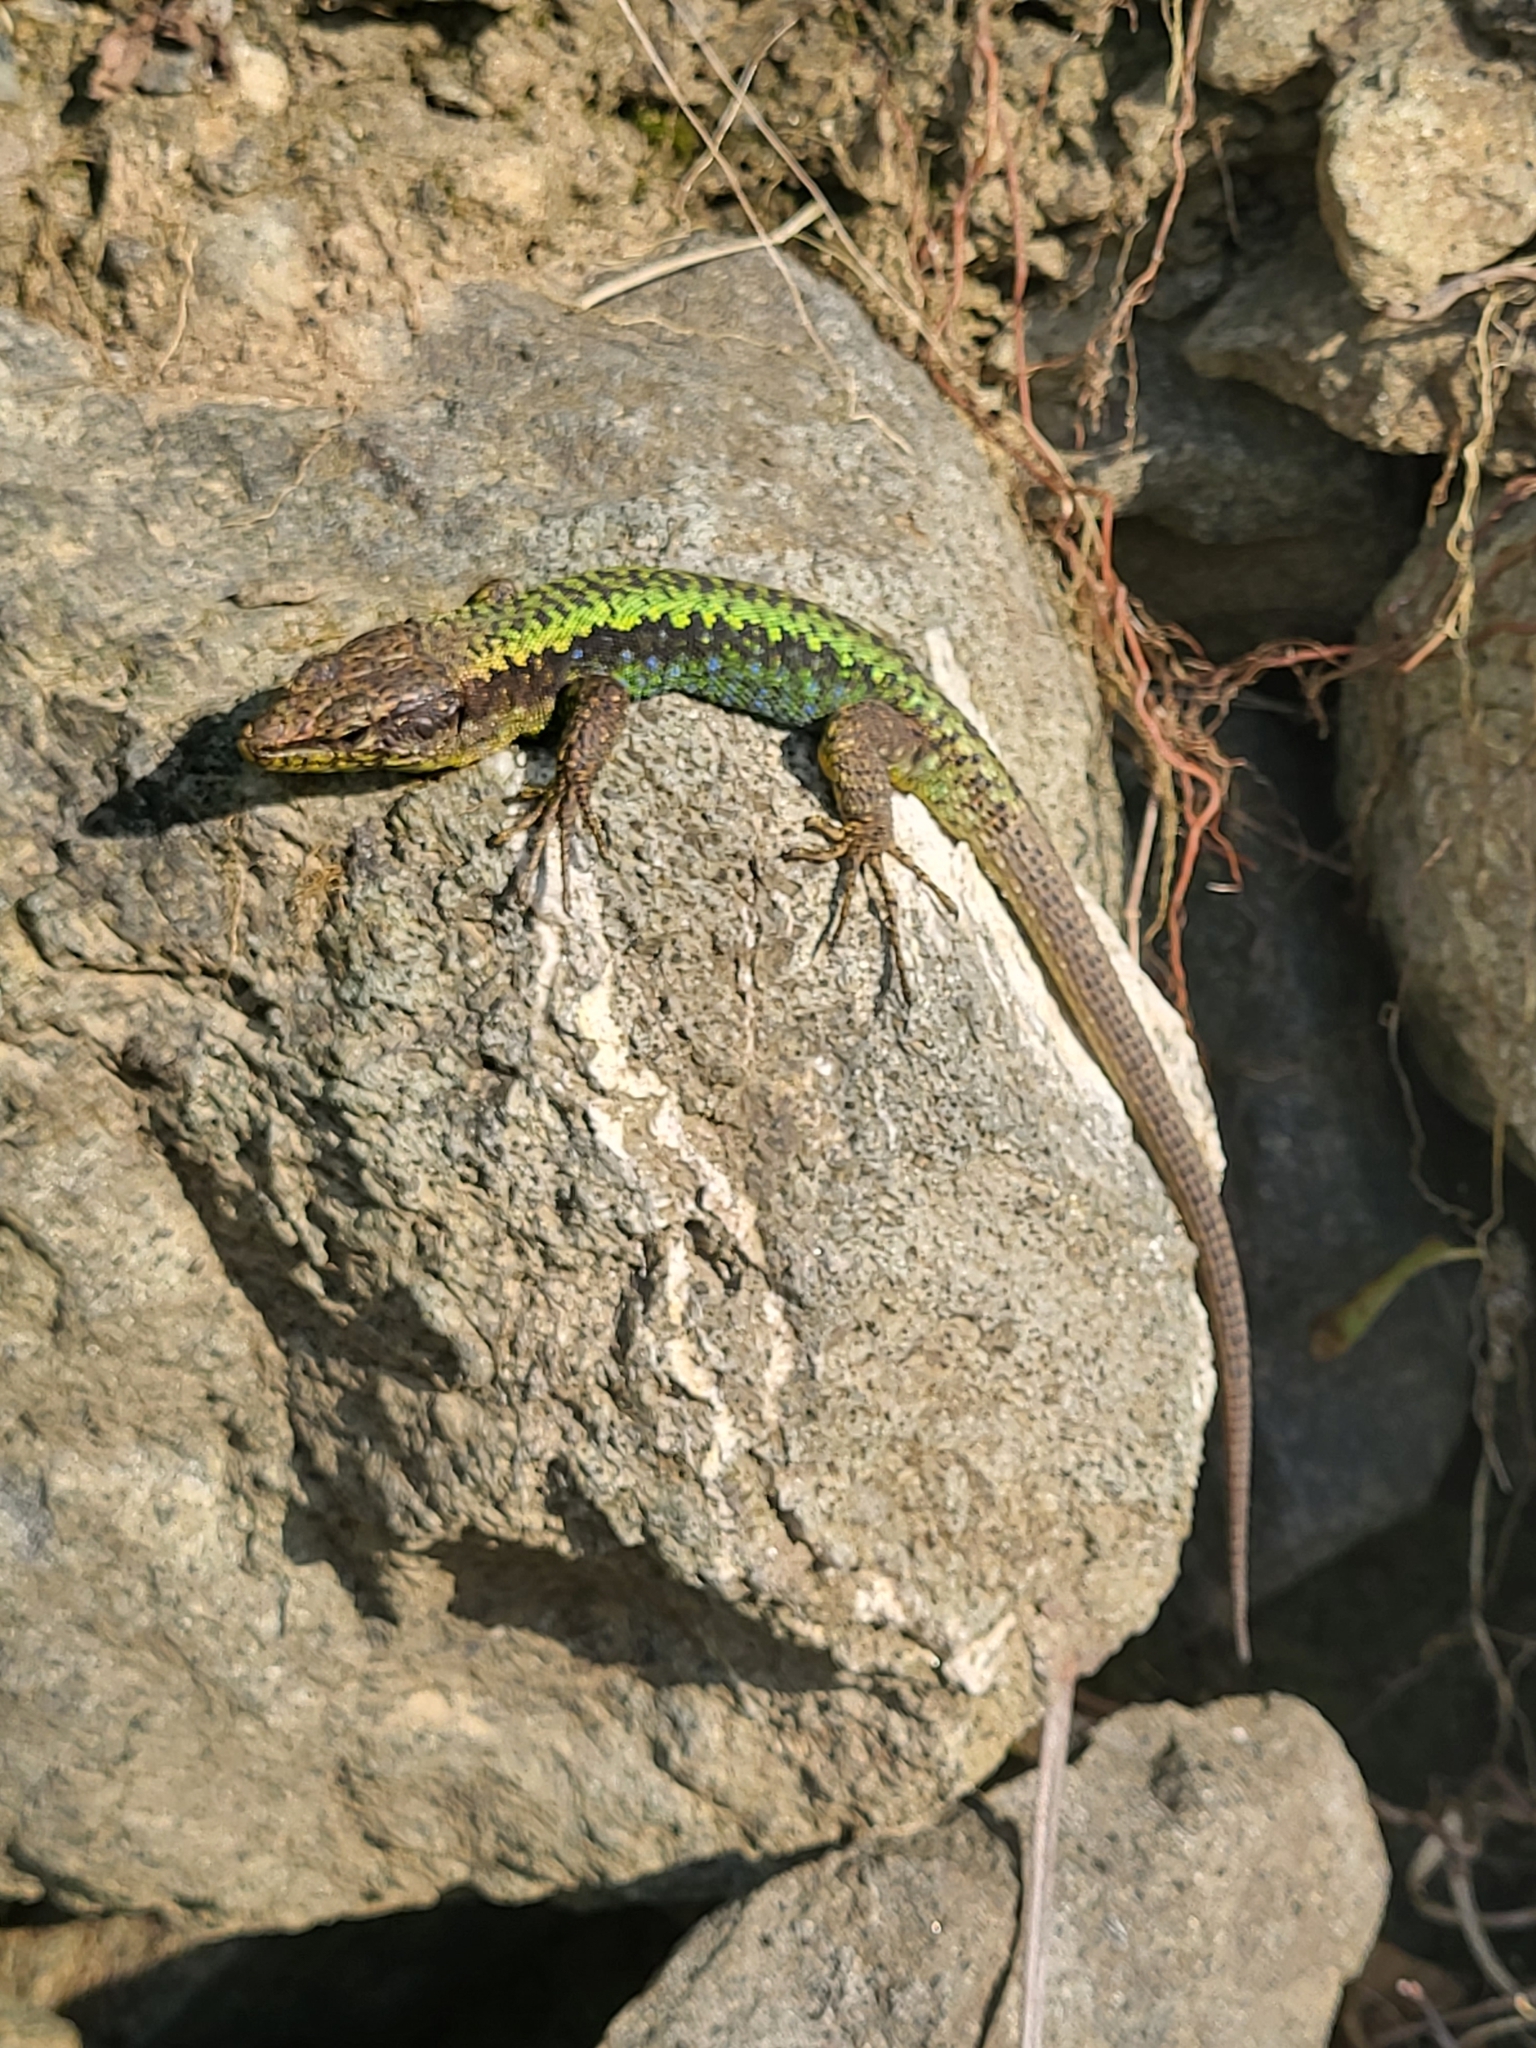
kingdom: Animalia
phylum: Chordata
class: Squamata
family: Lacertidae
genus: Darevskia
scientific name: Darevskia rudis
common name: Spiny-tailed lizard
